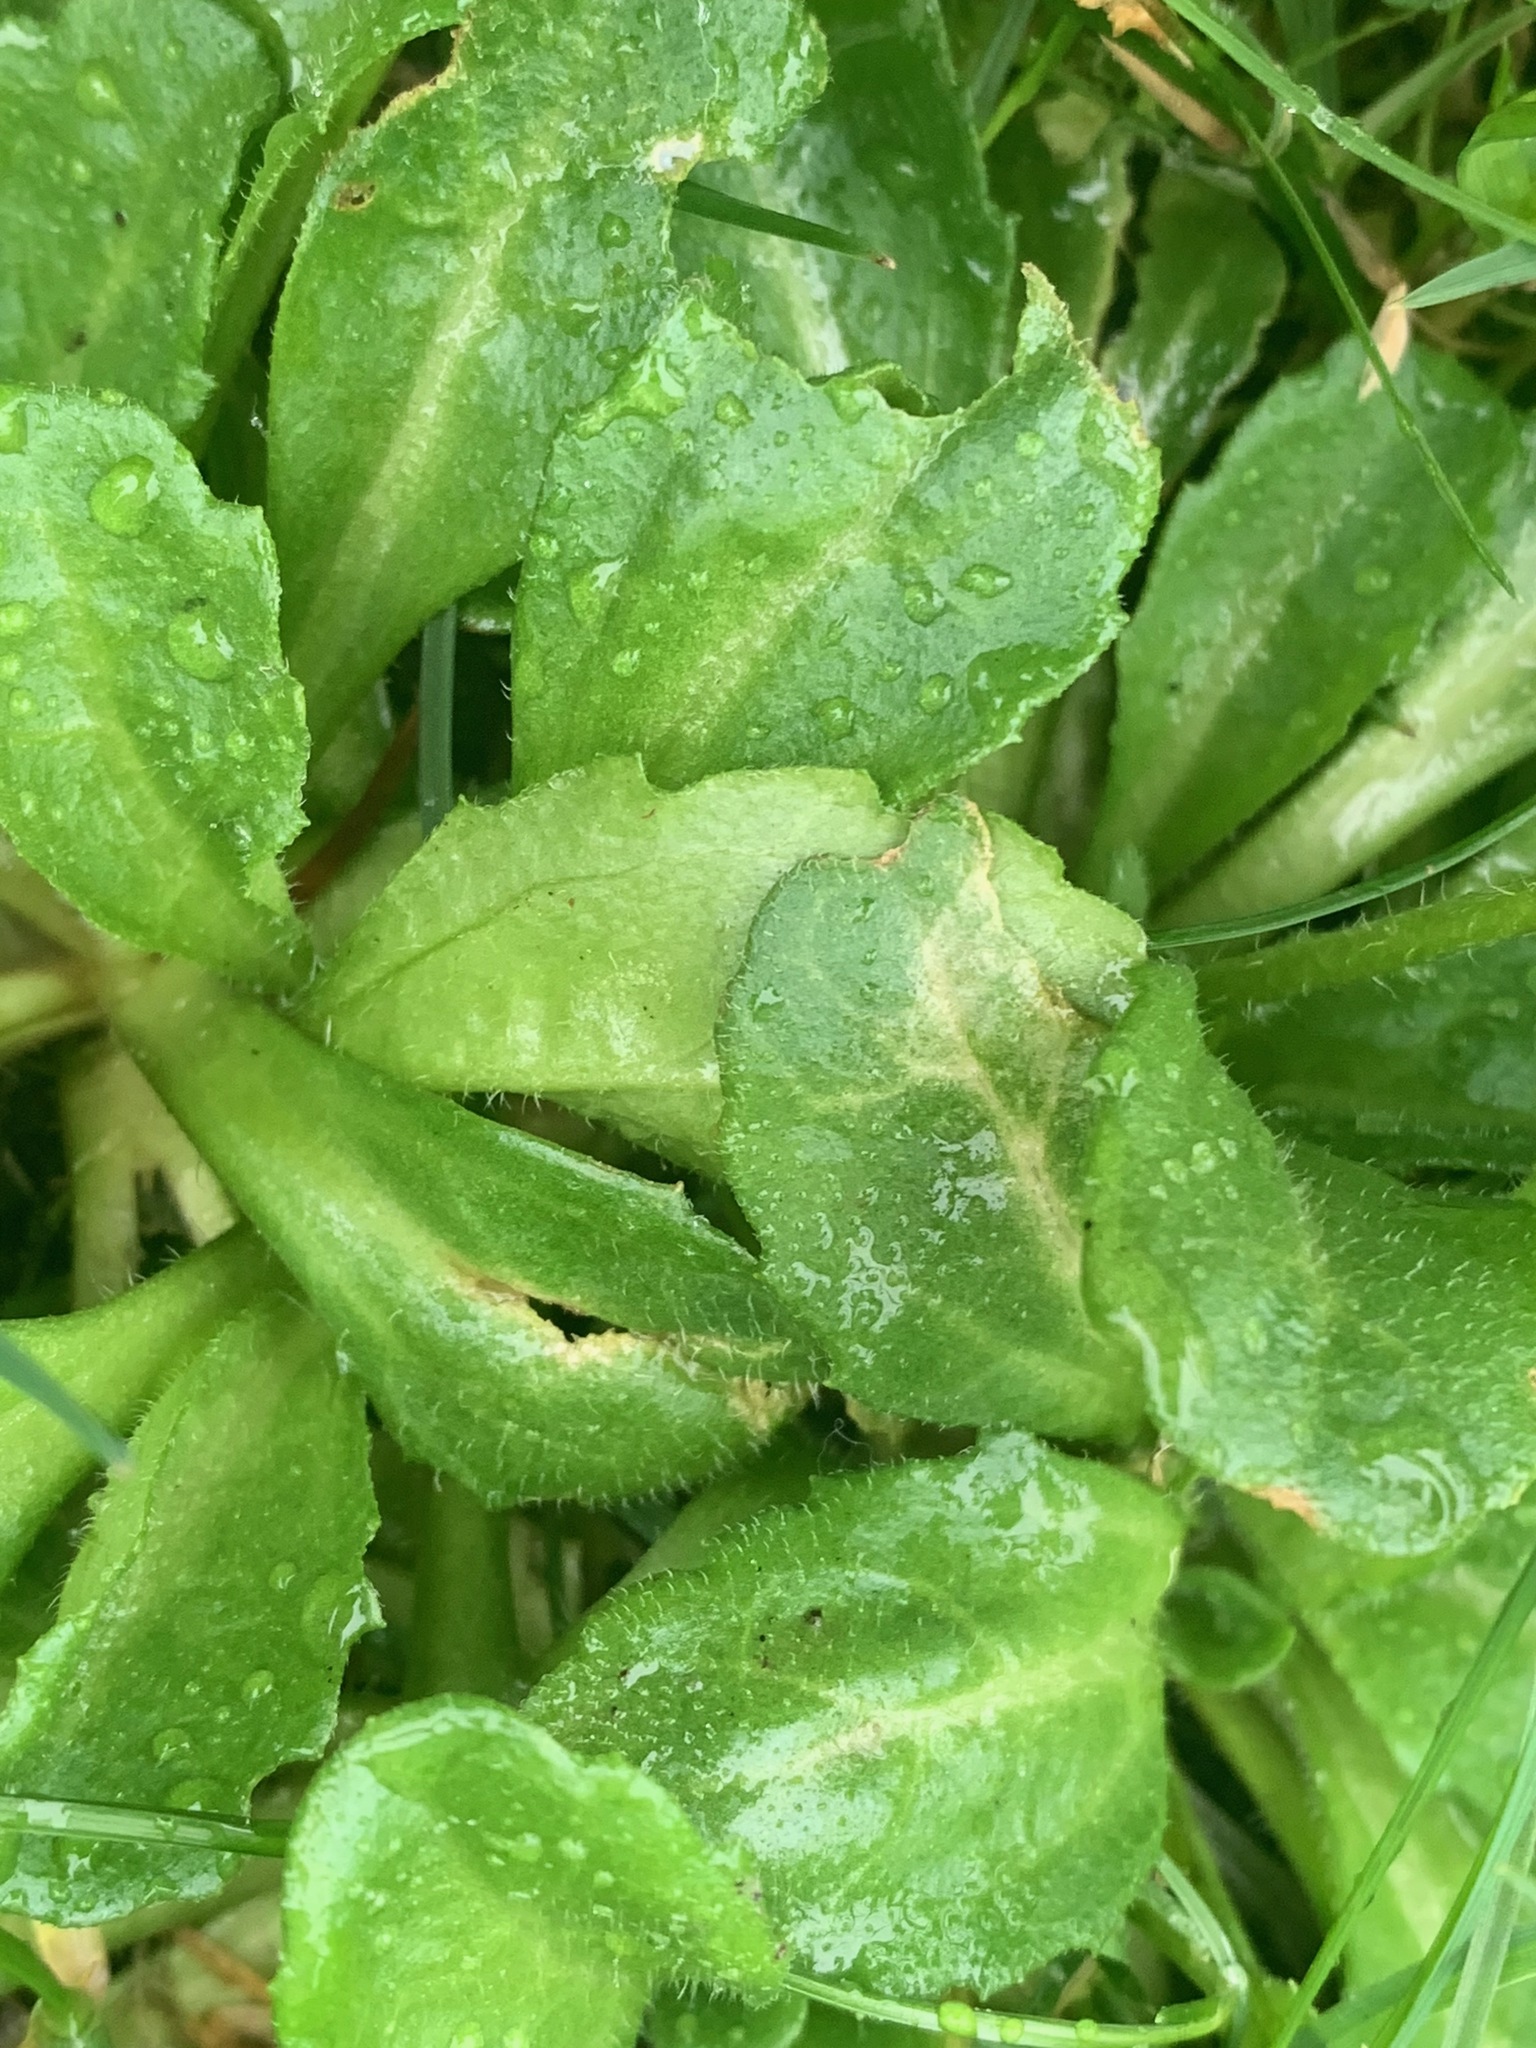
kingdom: Plantae
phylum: Tracheophyta
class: Magnoliopsida
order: Asterales
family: Asteraceae
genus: Bellis
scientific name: Bellis perennis
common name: Lawndaisy
